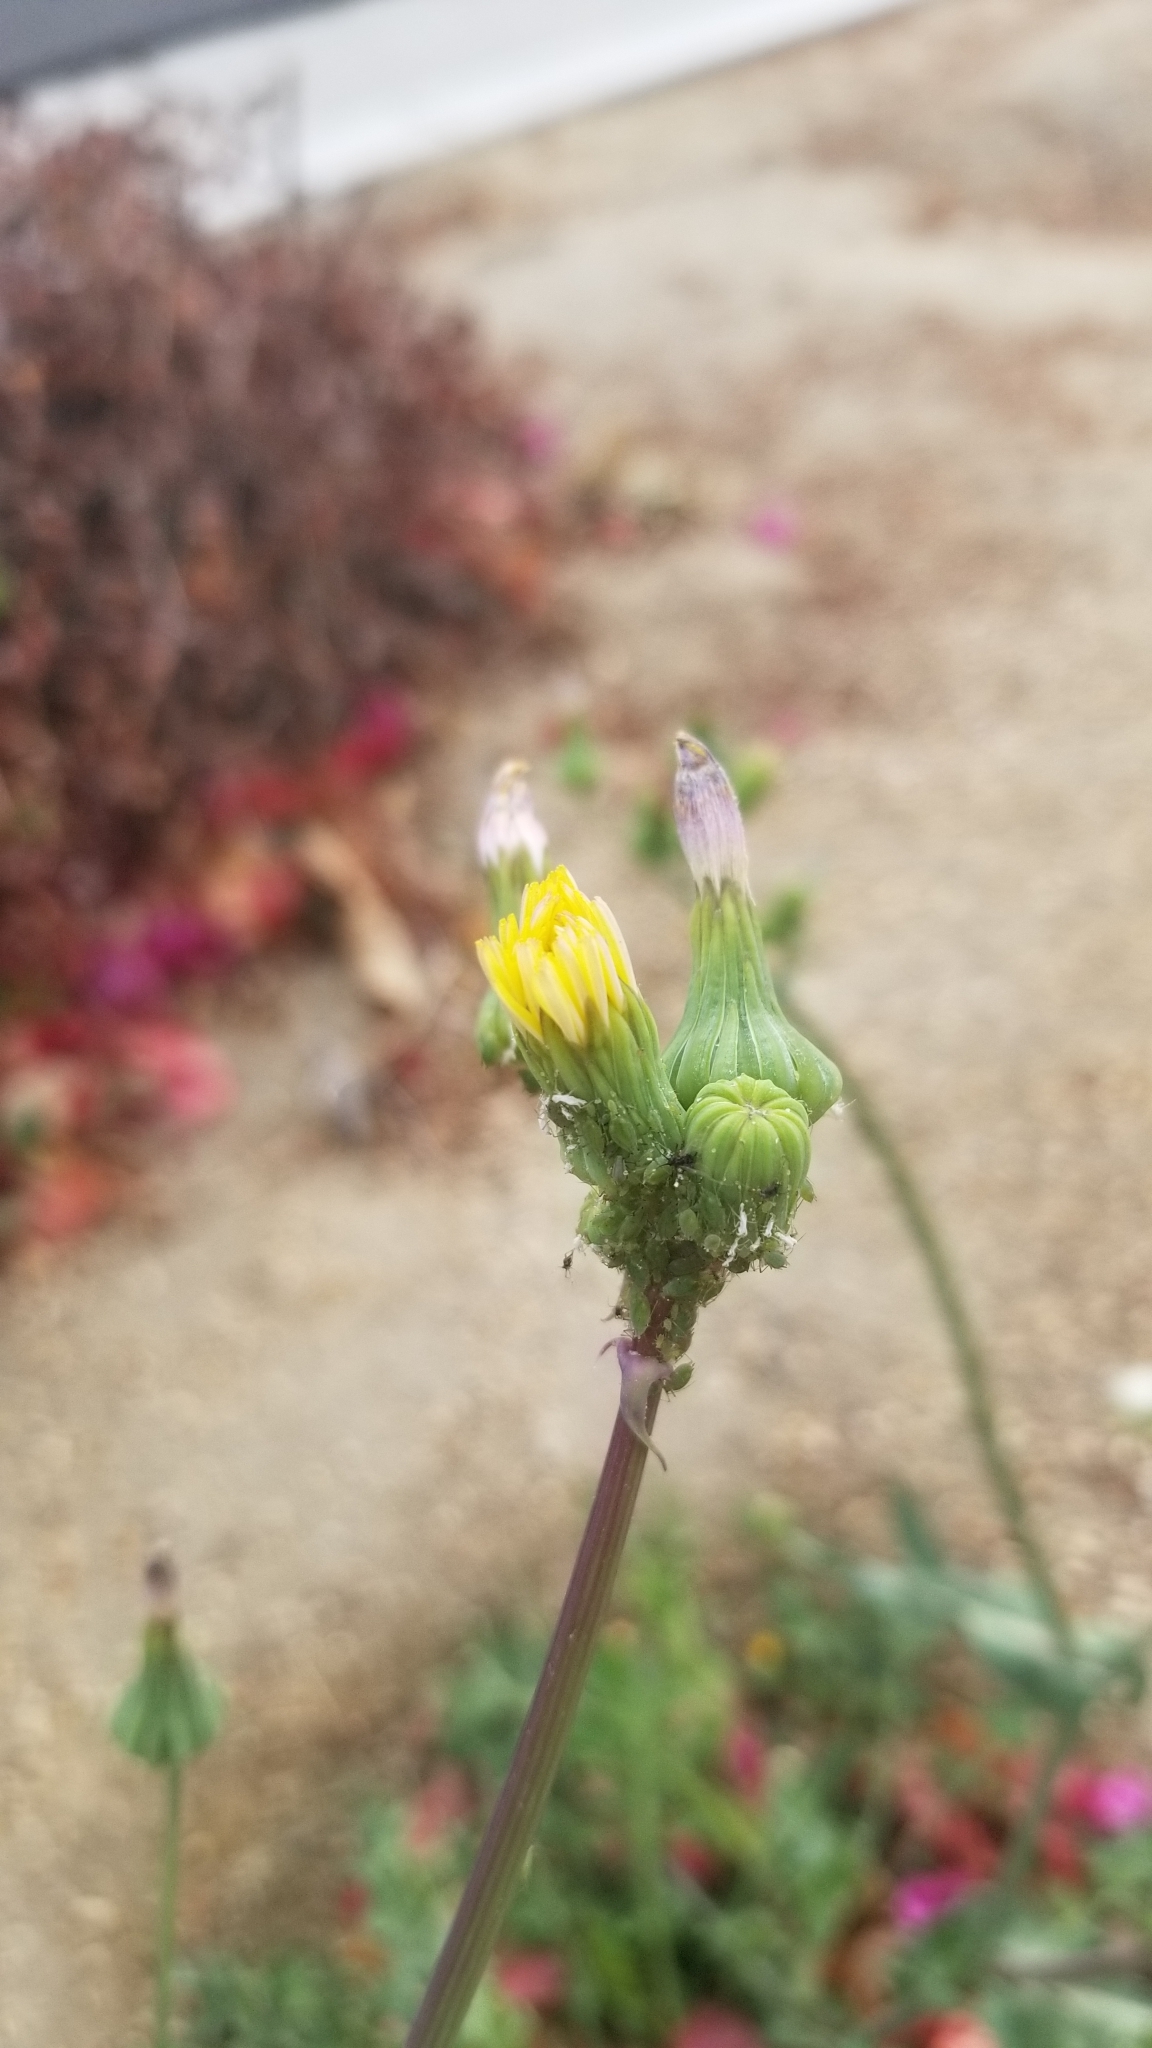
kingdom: Plantae
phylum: Tracheophyta
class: Magnoliopsida
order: Asterales
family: Asteraceae
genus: Sonchus
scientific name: Sonchus oleraceus
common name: Common sowthistle
